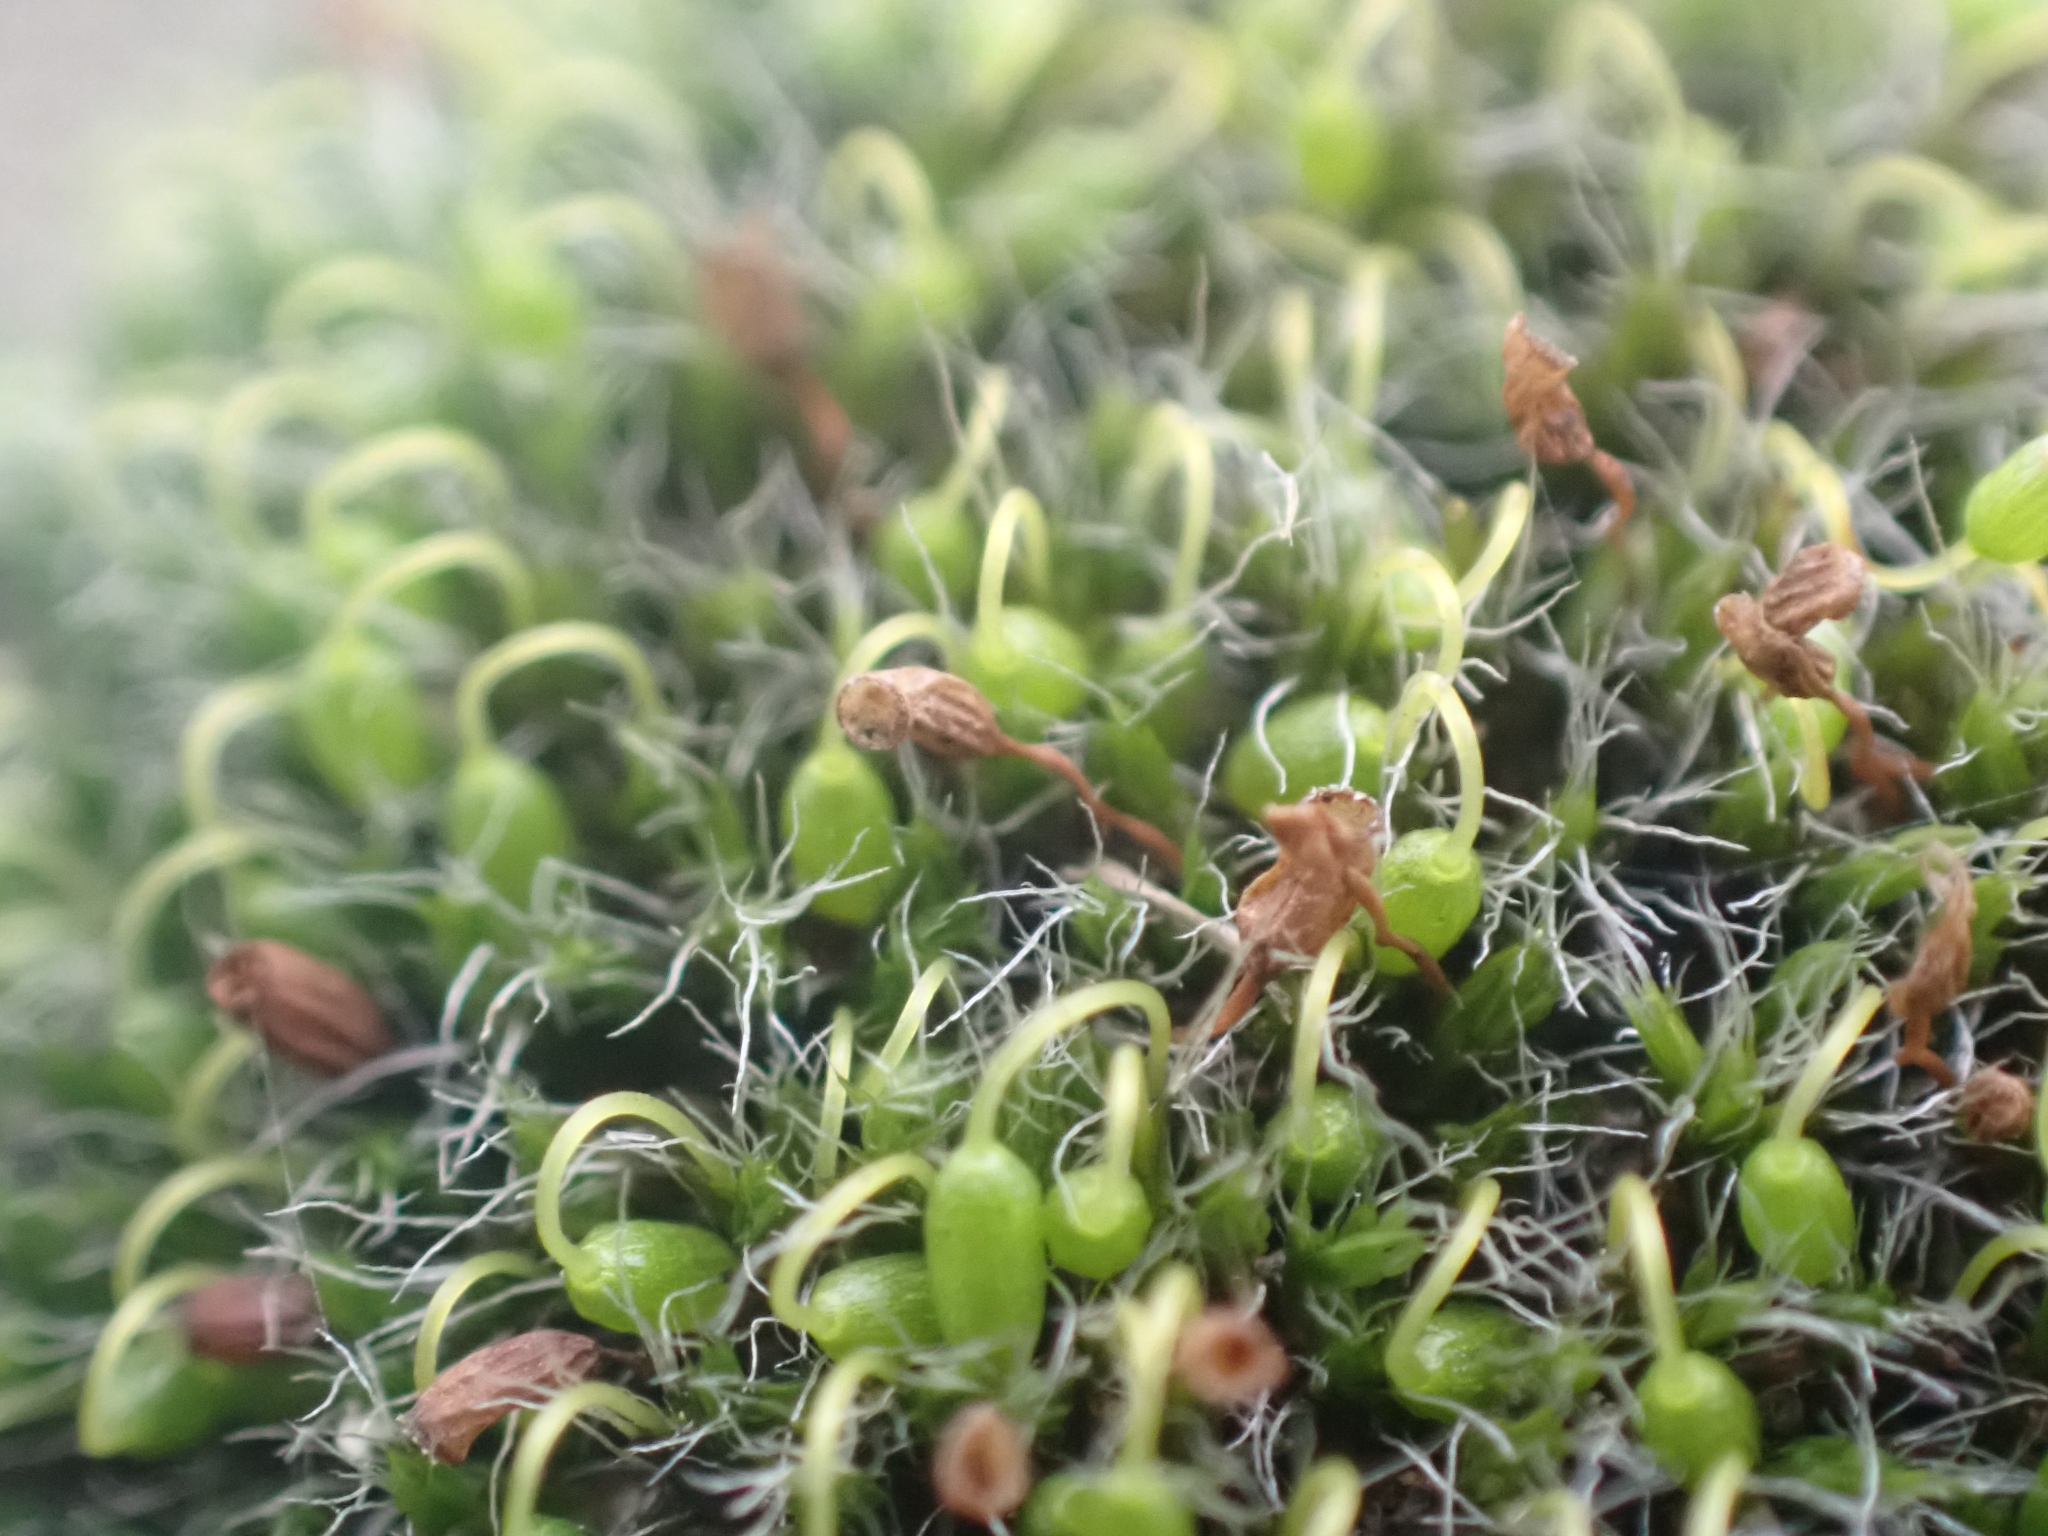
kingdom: Plantae
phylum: Bryophyta
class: Bryopsida
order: Grimmiales
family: Grimmiaceae
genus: Grimmia
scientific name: Grimmia pulvinata
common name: Grey-cushioned grimmia
